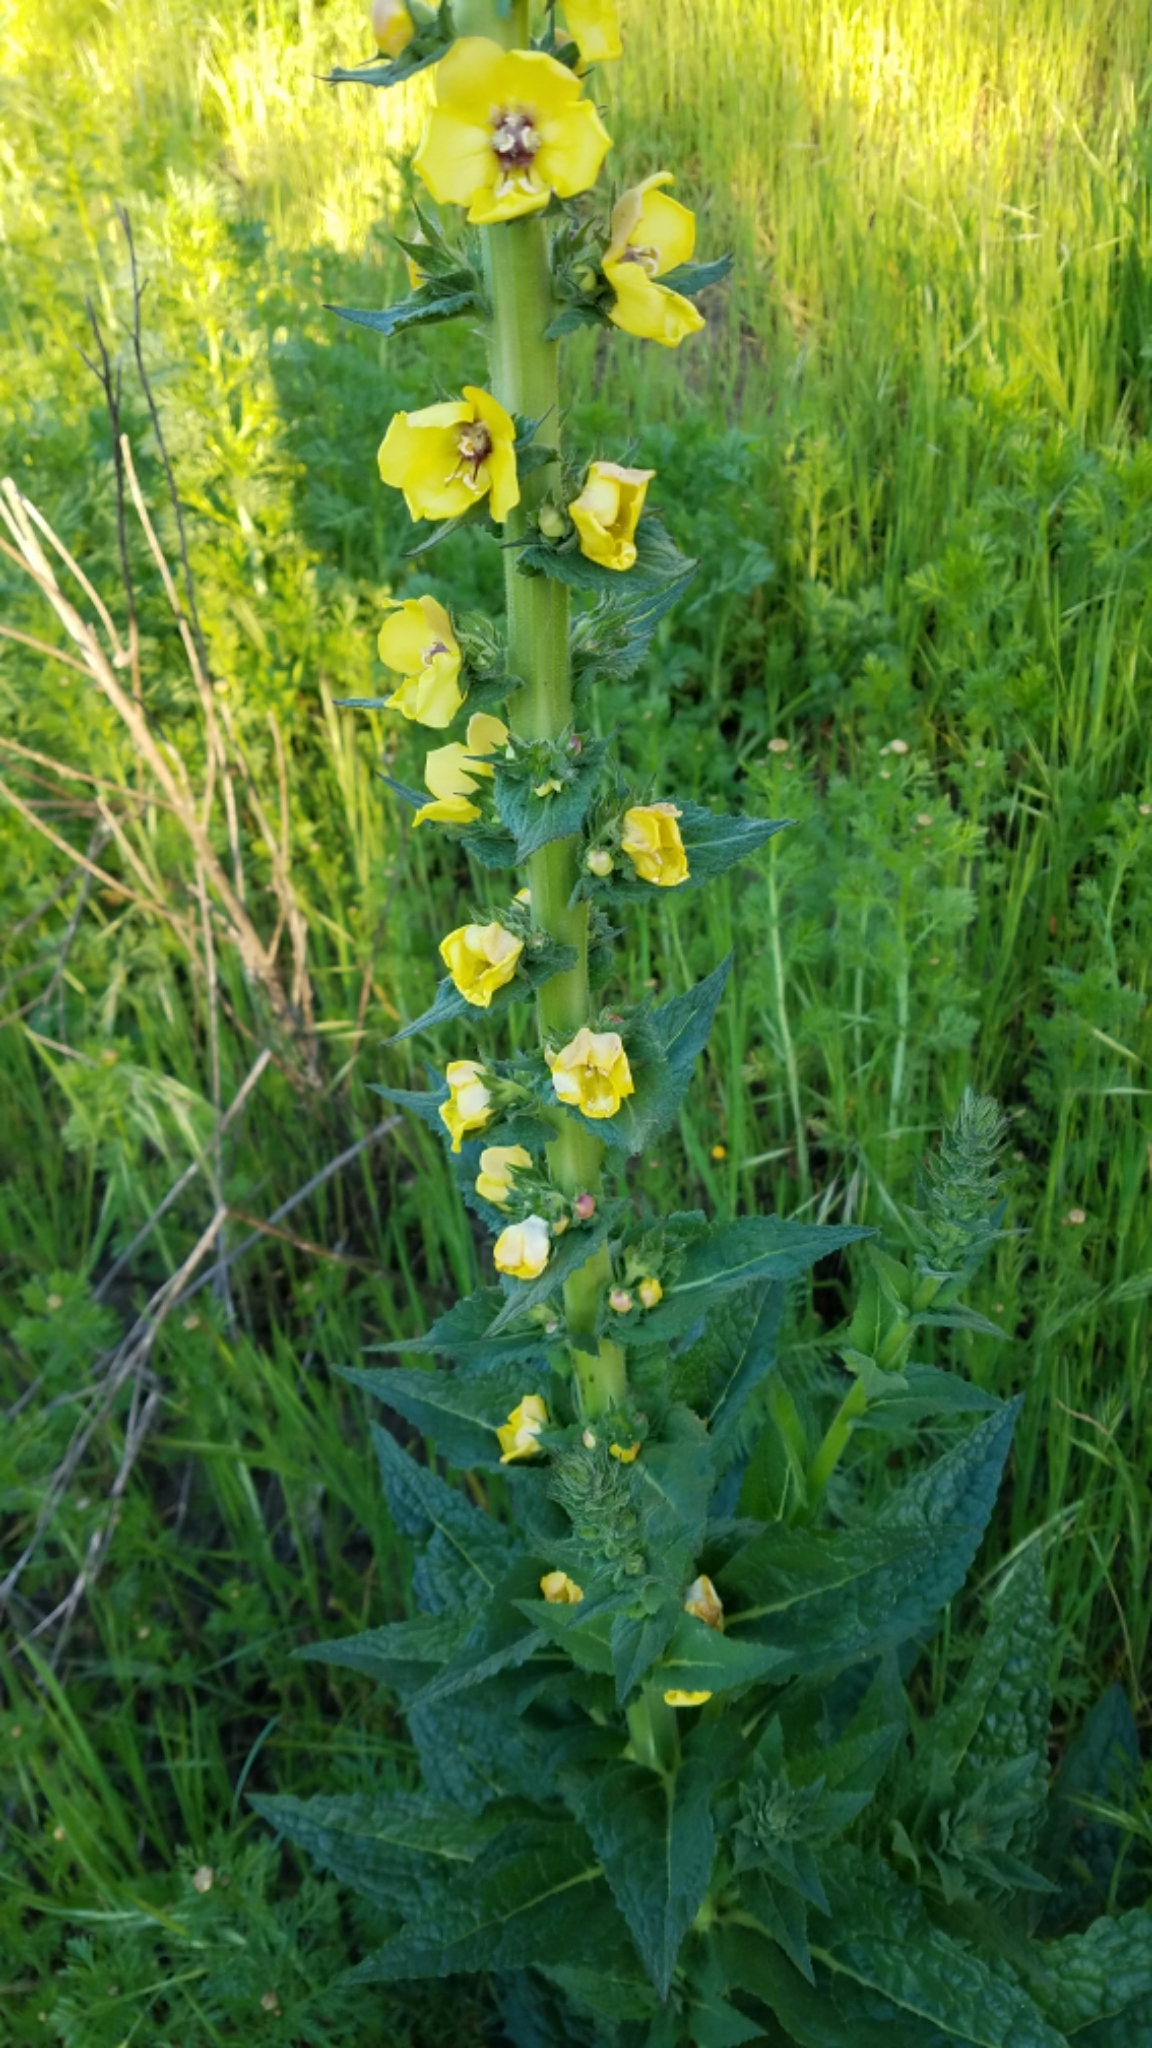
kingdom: Plantae
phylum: Tracheophyta
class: Magnoliopsida
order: Lamiales
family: Scrophulariaceae
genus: Verbascum
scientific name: Verbascum virgatum
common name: Twiggy mullein
